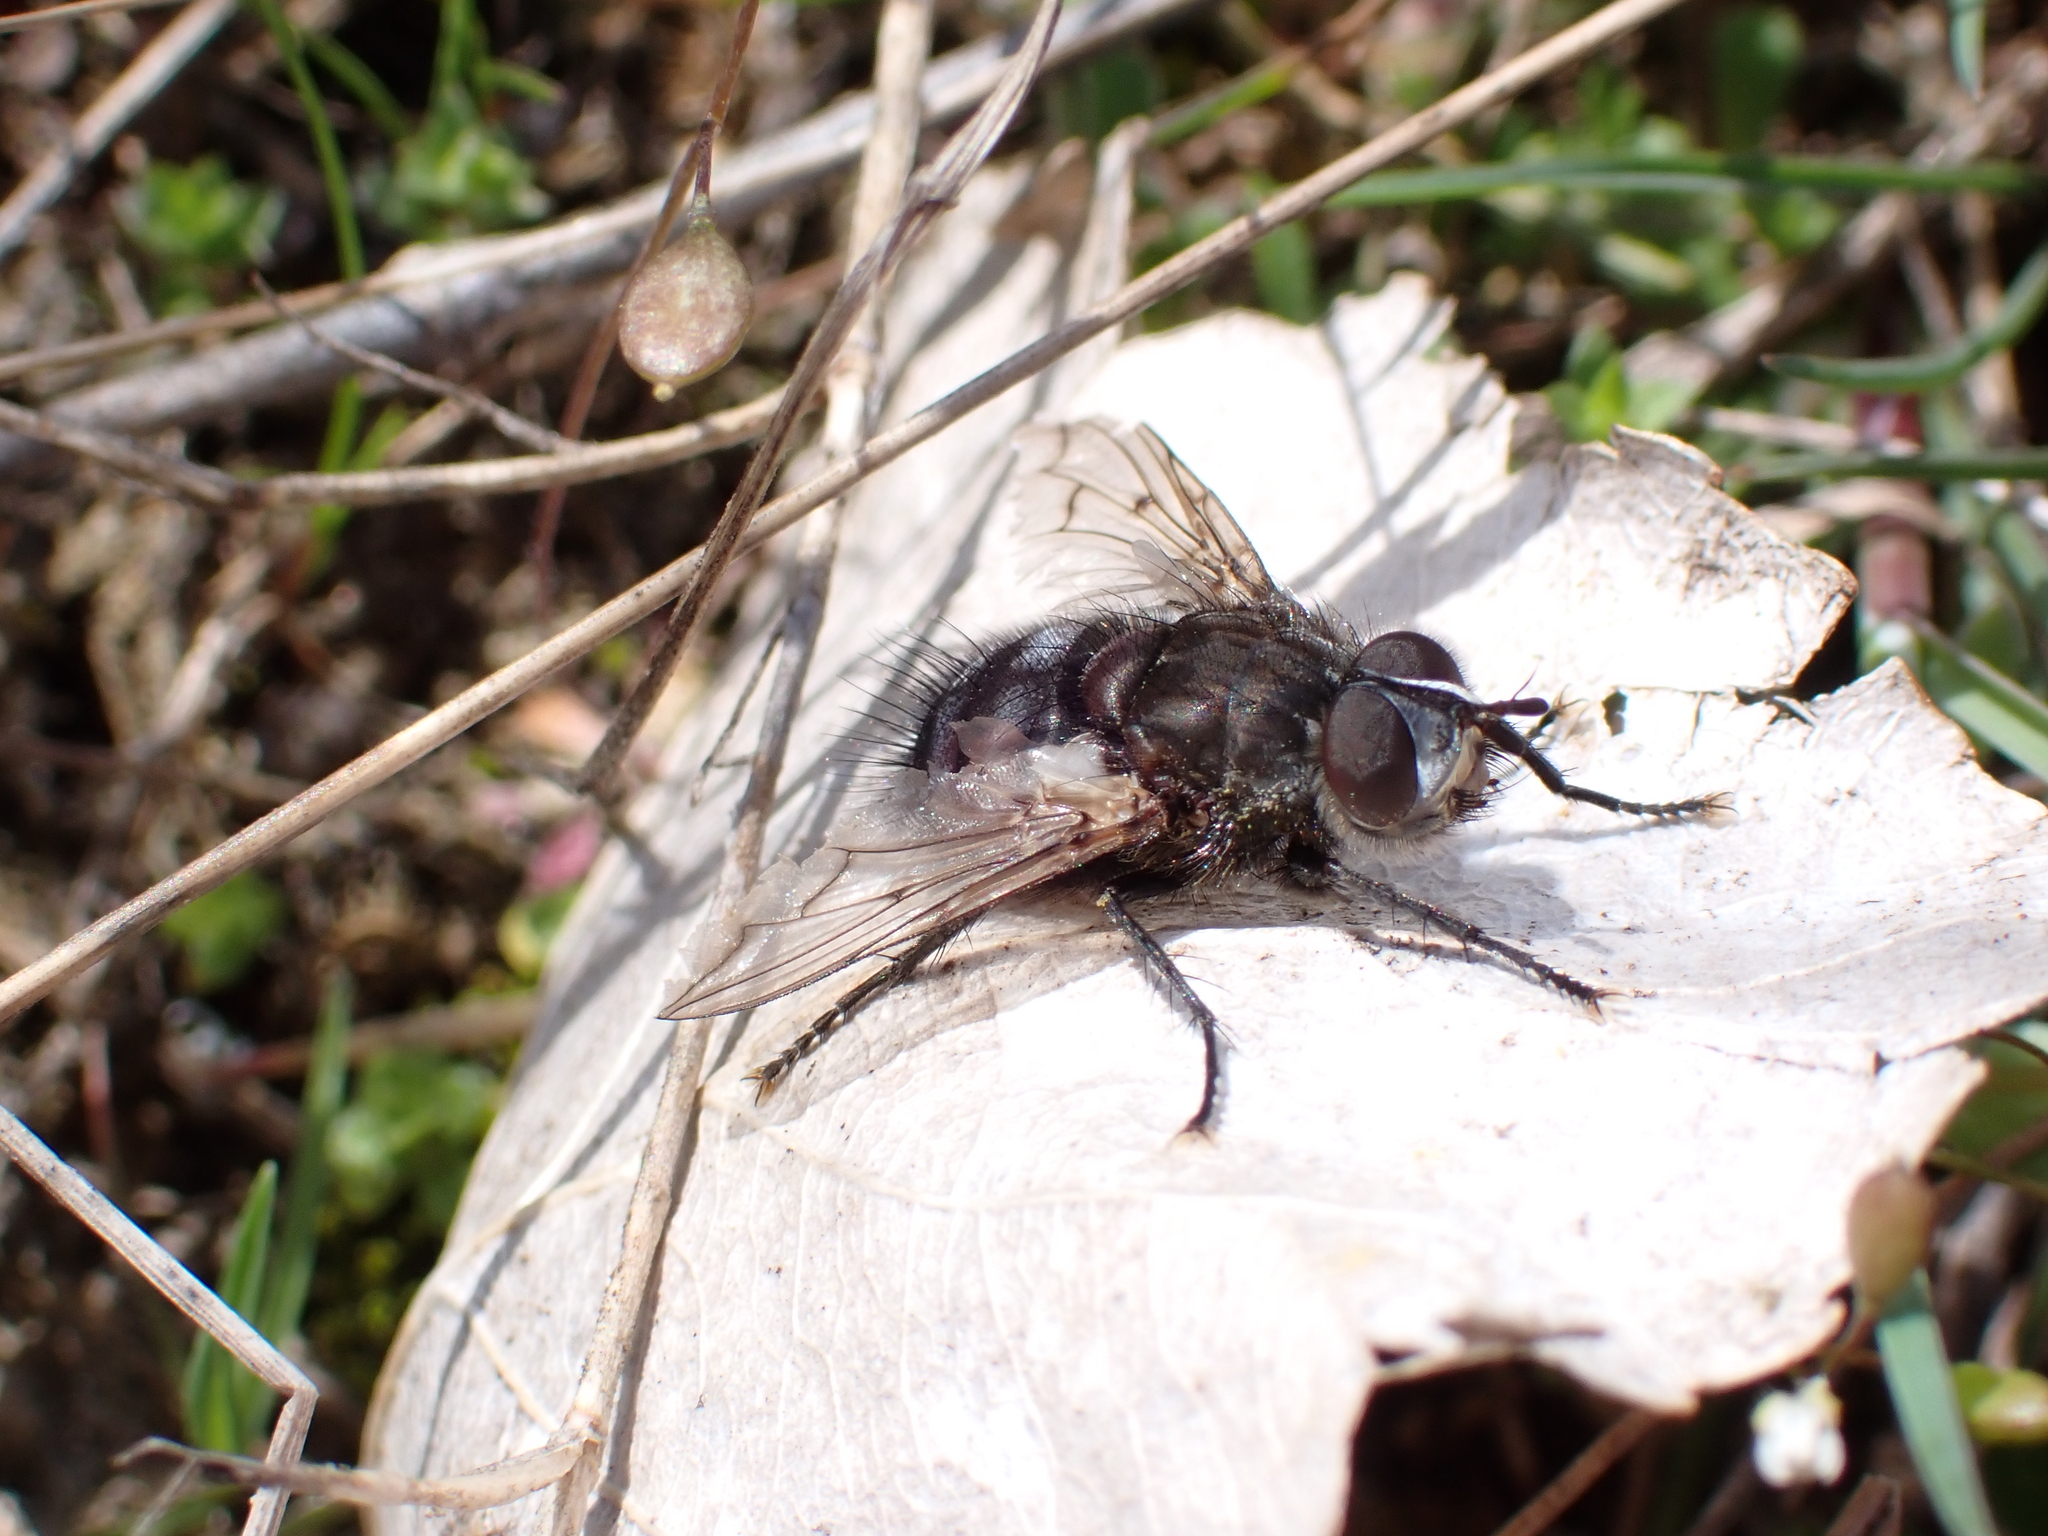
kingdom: Animalia
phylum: Arthropoda
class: Insecta
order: Diptera
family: Tachinidae
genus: Panzeria
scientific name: Panzeria puparum
